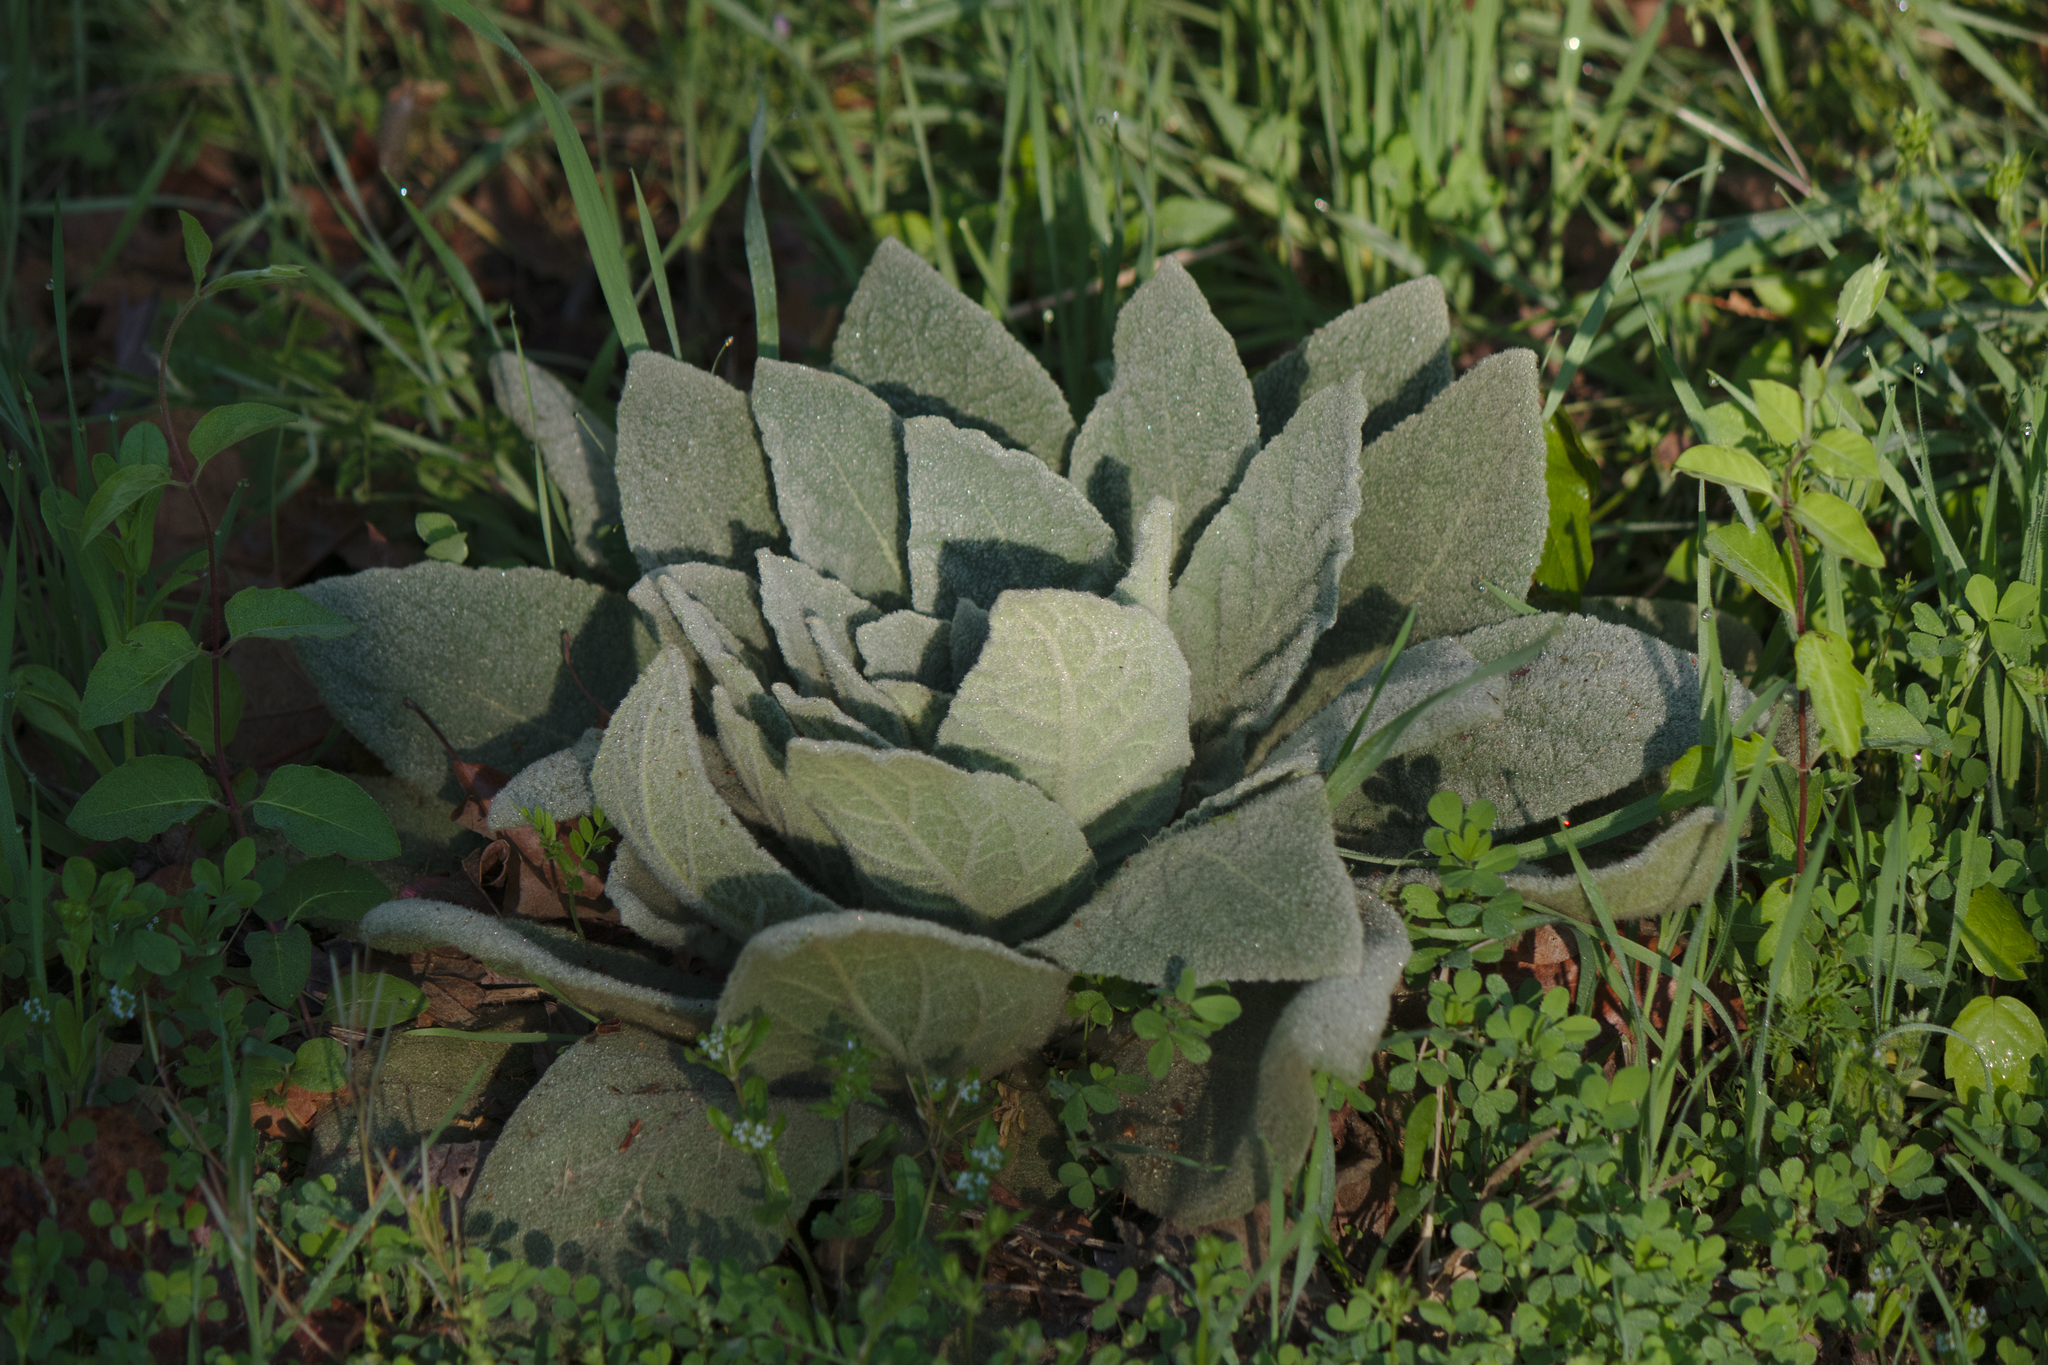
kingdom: Plantae
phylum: Tracheophyta
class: Magnoliopsida
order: Lamiales
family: Scrophulariaceae
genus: Verbascum
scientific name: Verbascum thapsus
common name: Common mullein
